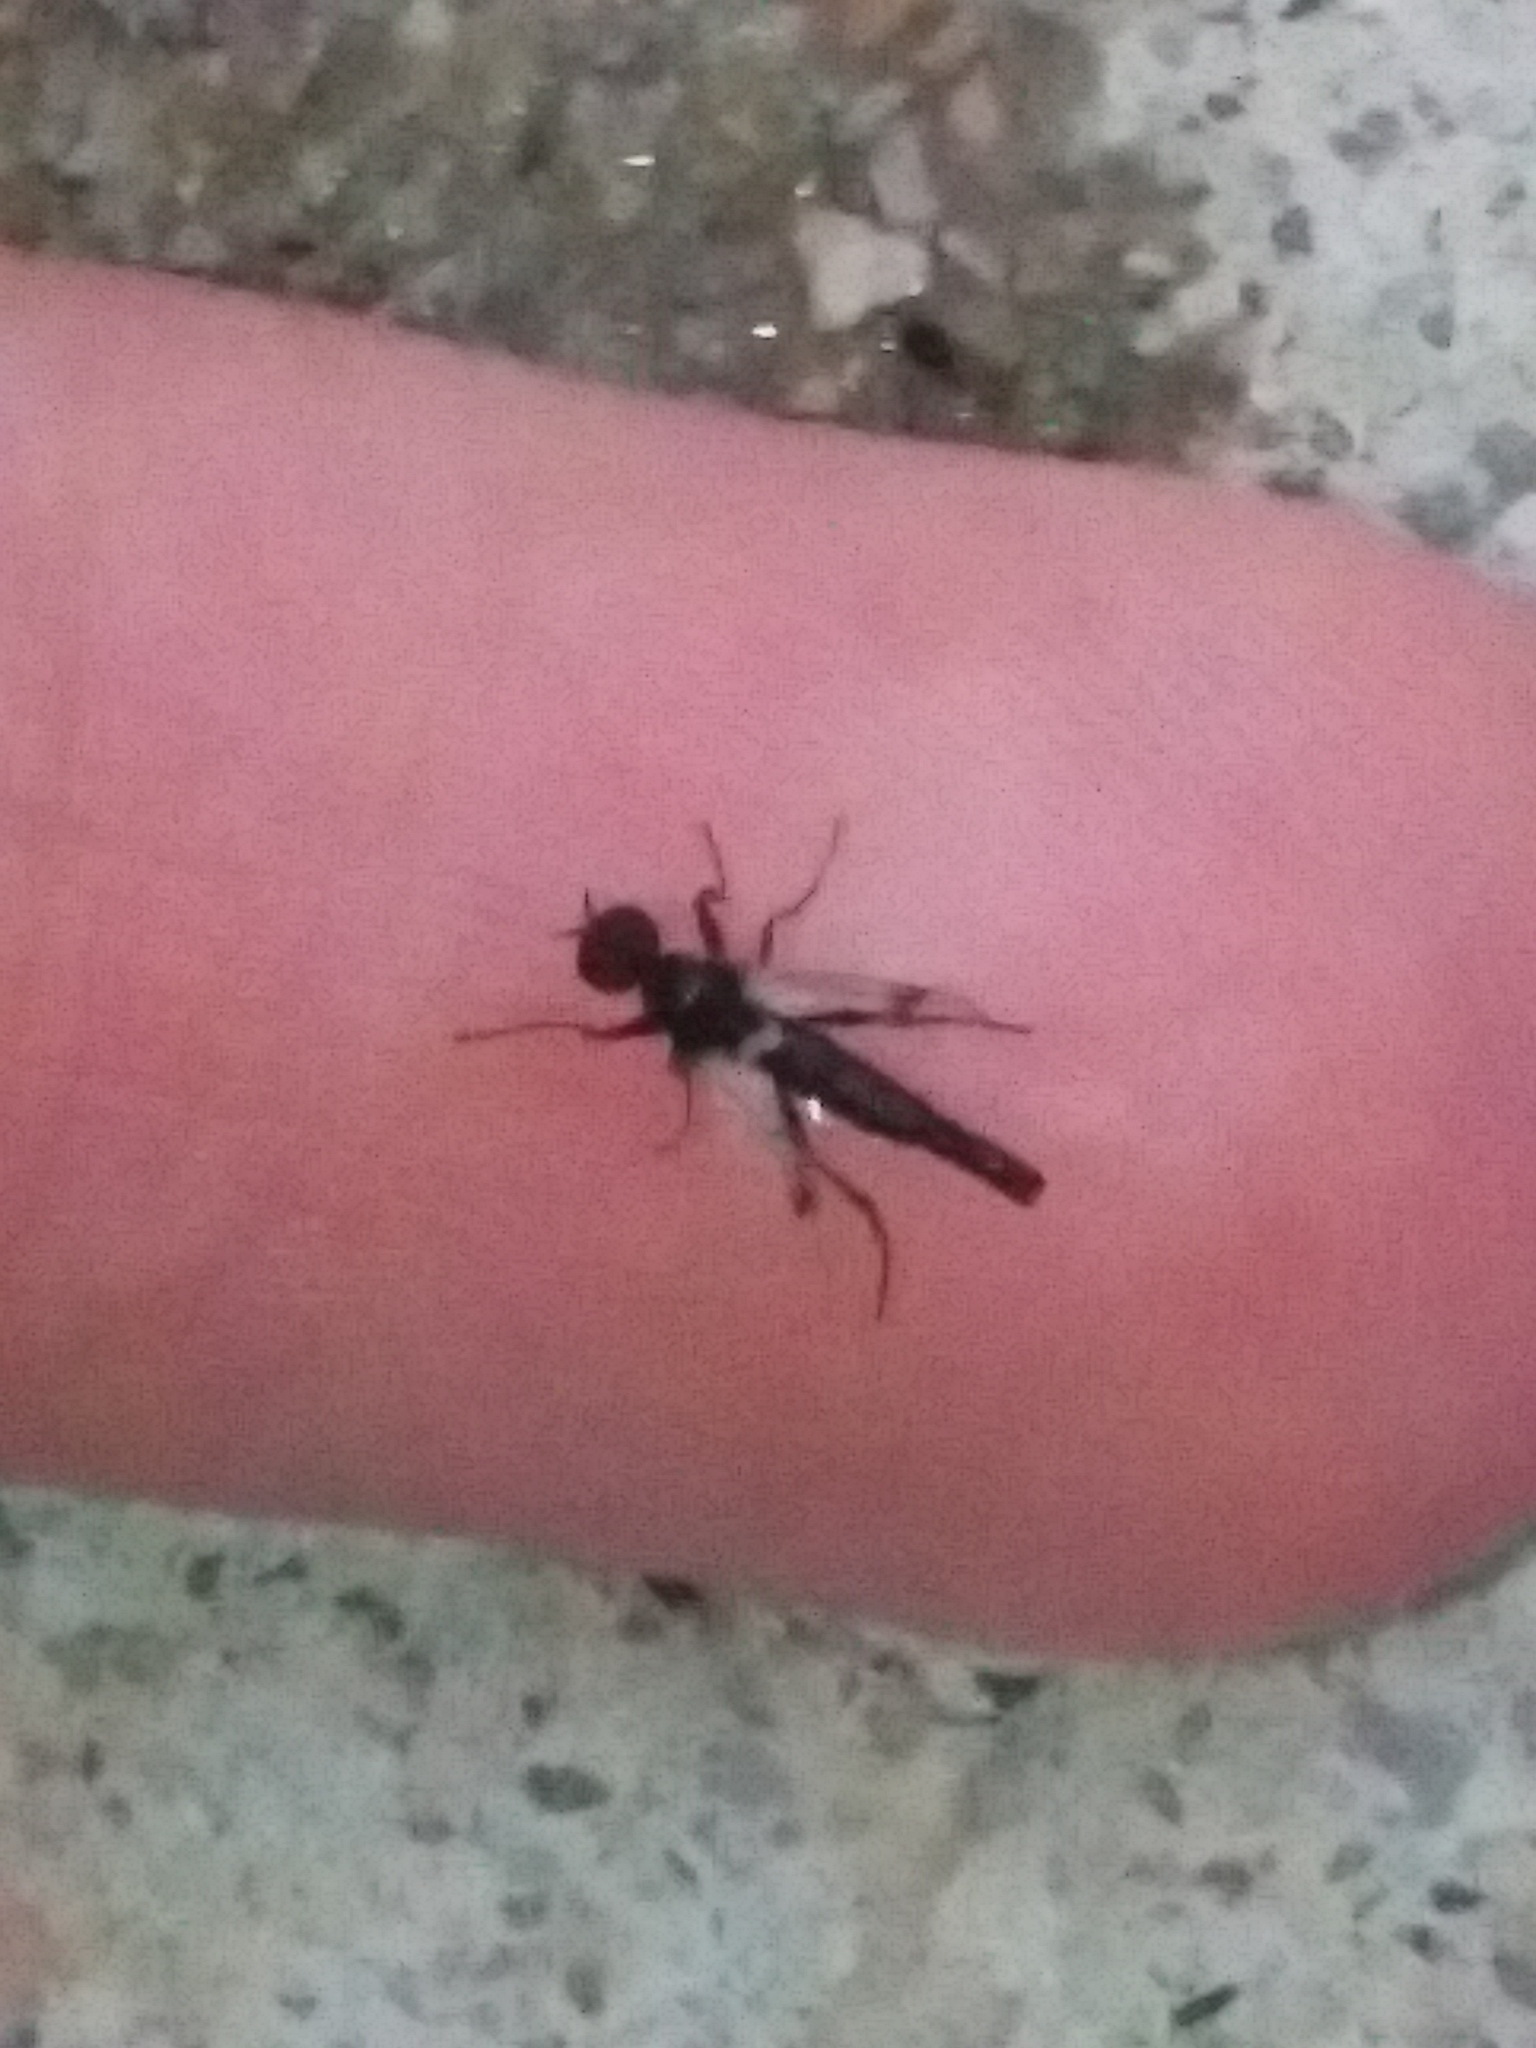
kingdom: Animalia
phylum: Arthropoda
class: Insecta
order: Diptera
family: Bibionidae
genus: Bibiodes
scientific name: Bibiodes halteralis
